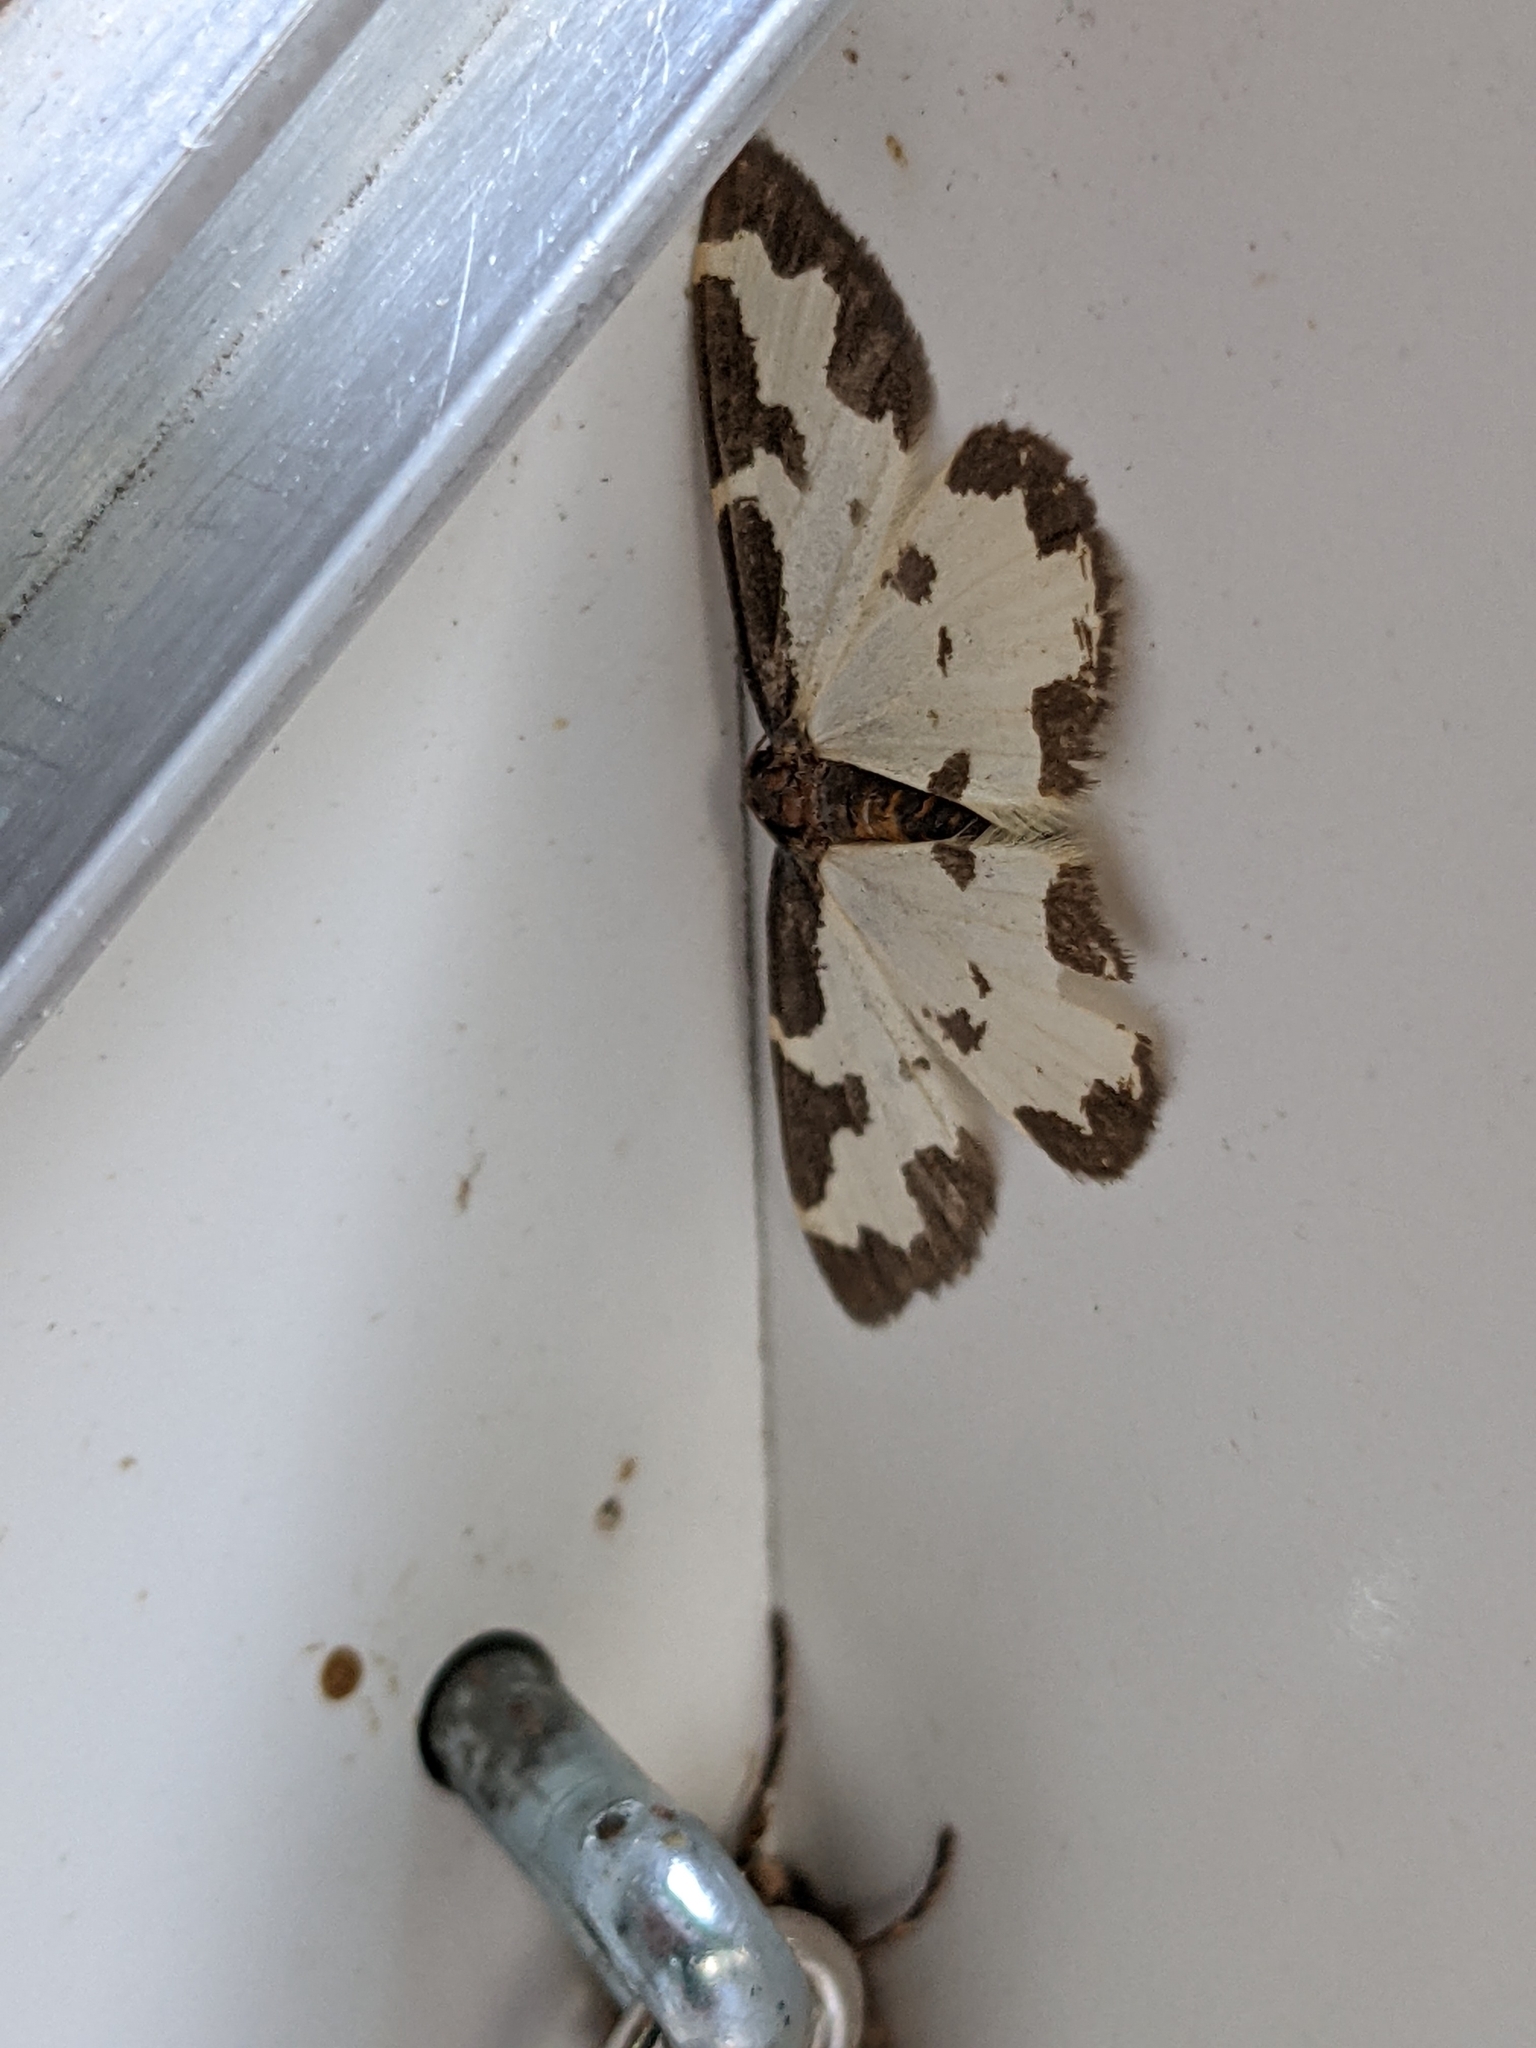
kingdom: Animalia
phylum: Arthropoda
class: Insecta
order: Lepidoptera
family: Geometridae
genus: Lomaspilis
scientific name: Lomaspilis marginata
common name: Clouded border
